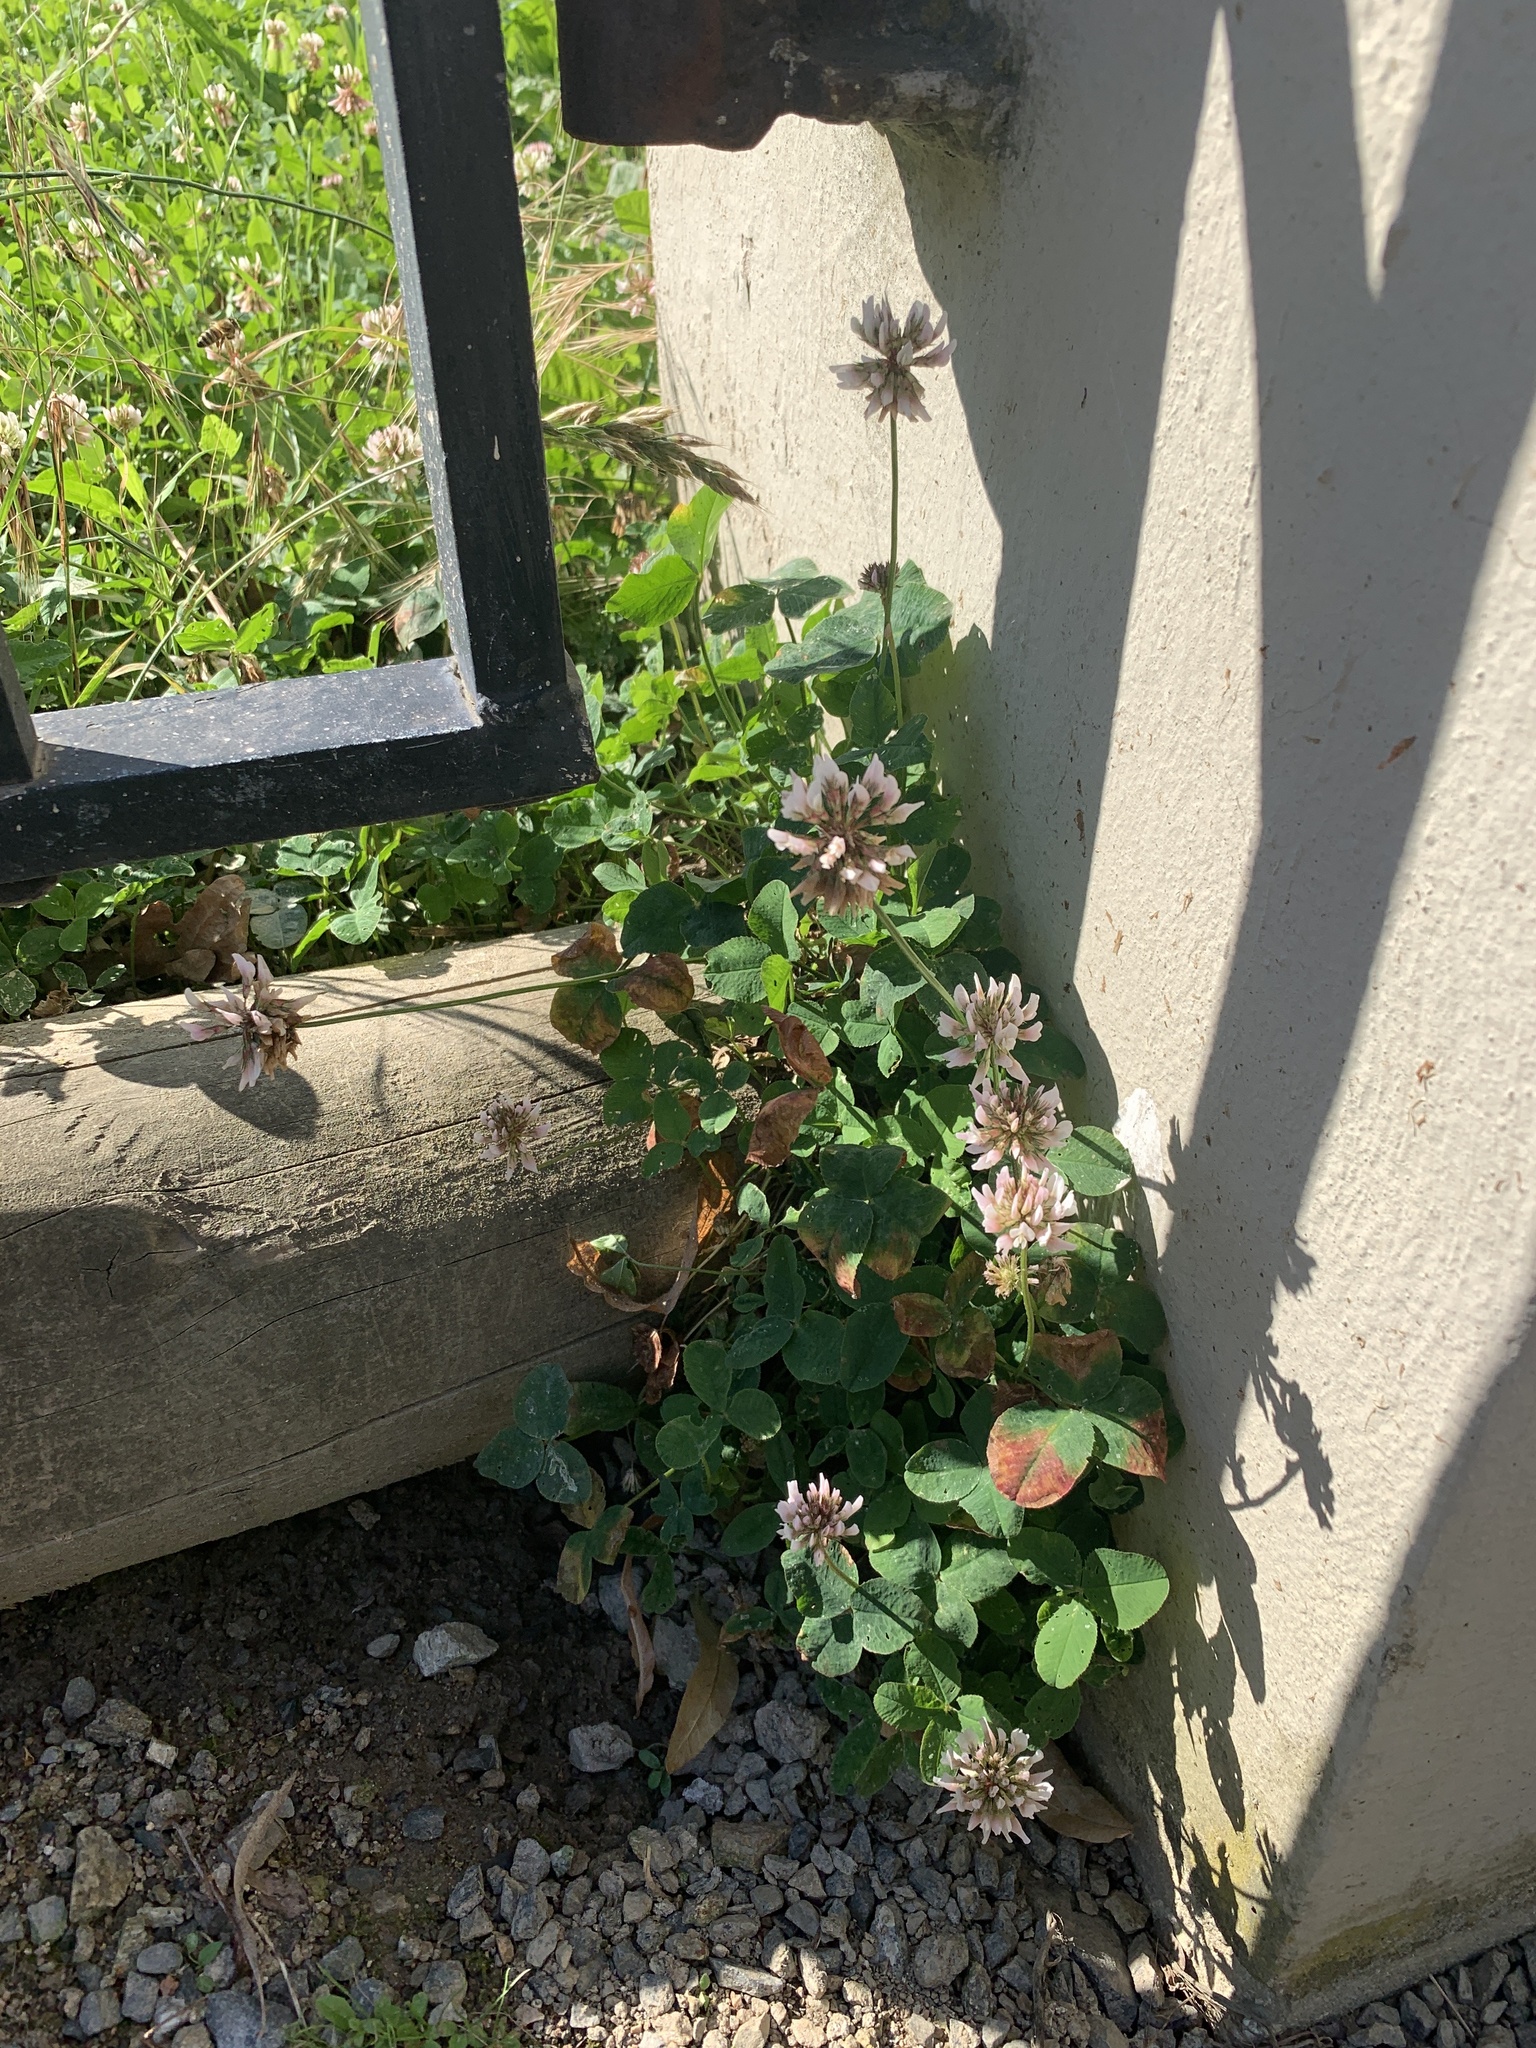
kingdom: Plantae
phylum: Tracheophyta
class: Magnoliopsida
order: Fabales
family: Fabaceae
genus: Trifolium
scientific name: Trifolium repens
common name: White clover
